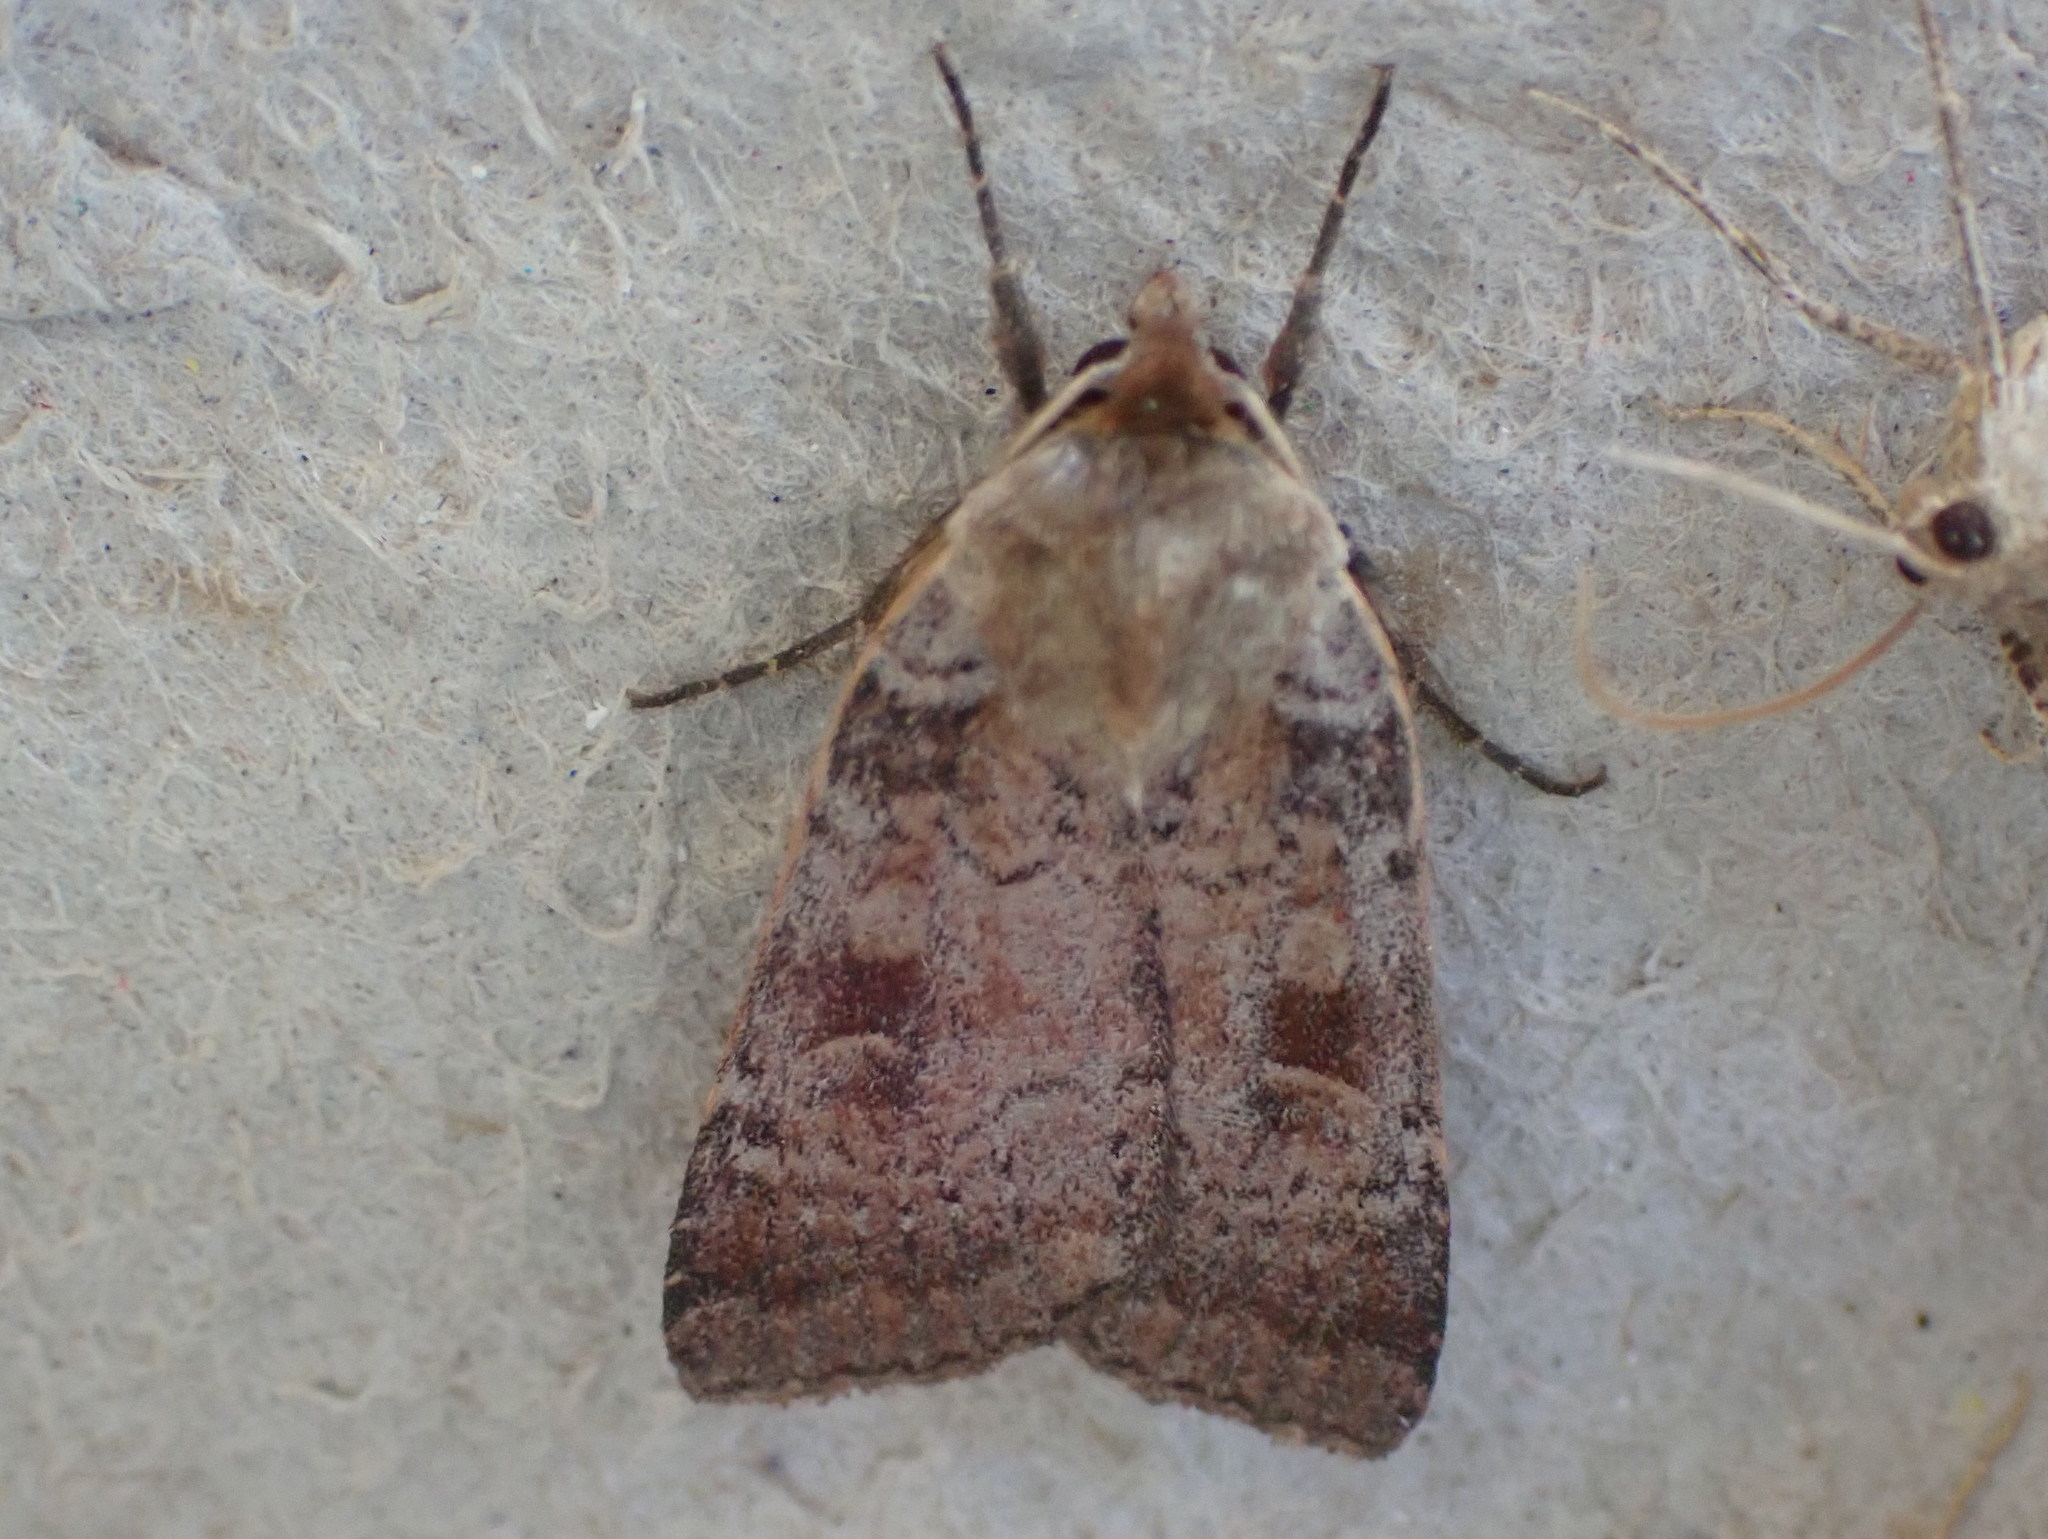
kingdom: Animalia
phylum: Arthropoda
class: Insecta
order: Lepidoptera
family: Noctuidae
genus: Lycophotia
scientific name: Lycophotia phyllophora
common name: Lycophotia moth
